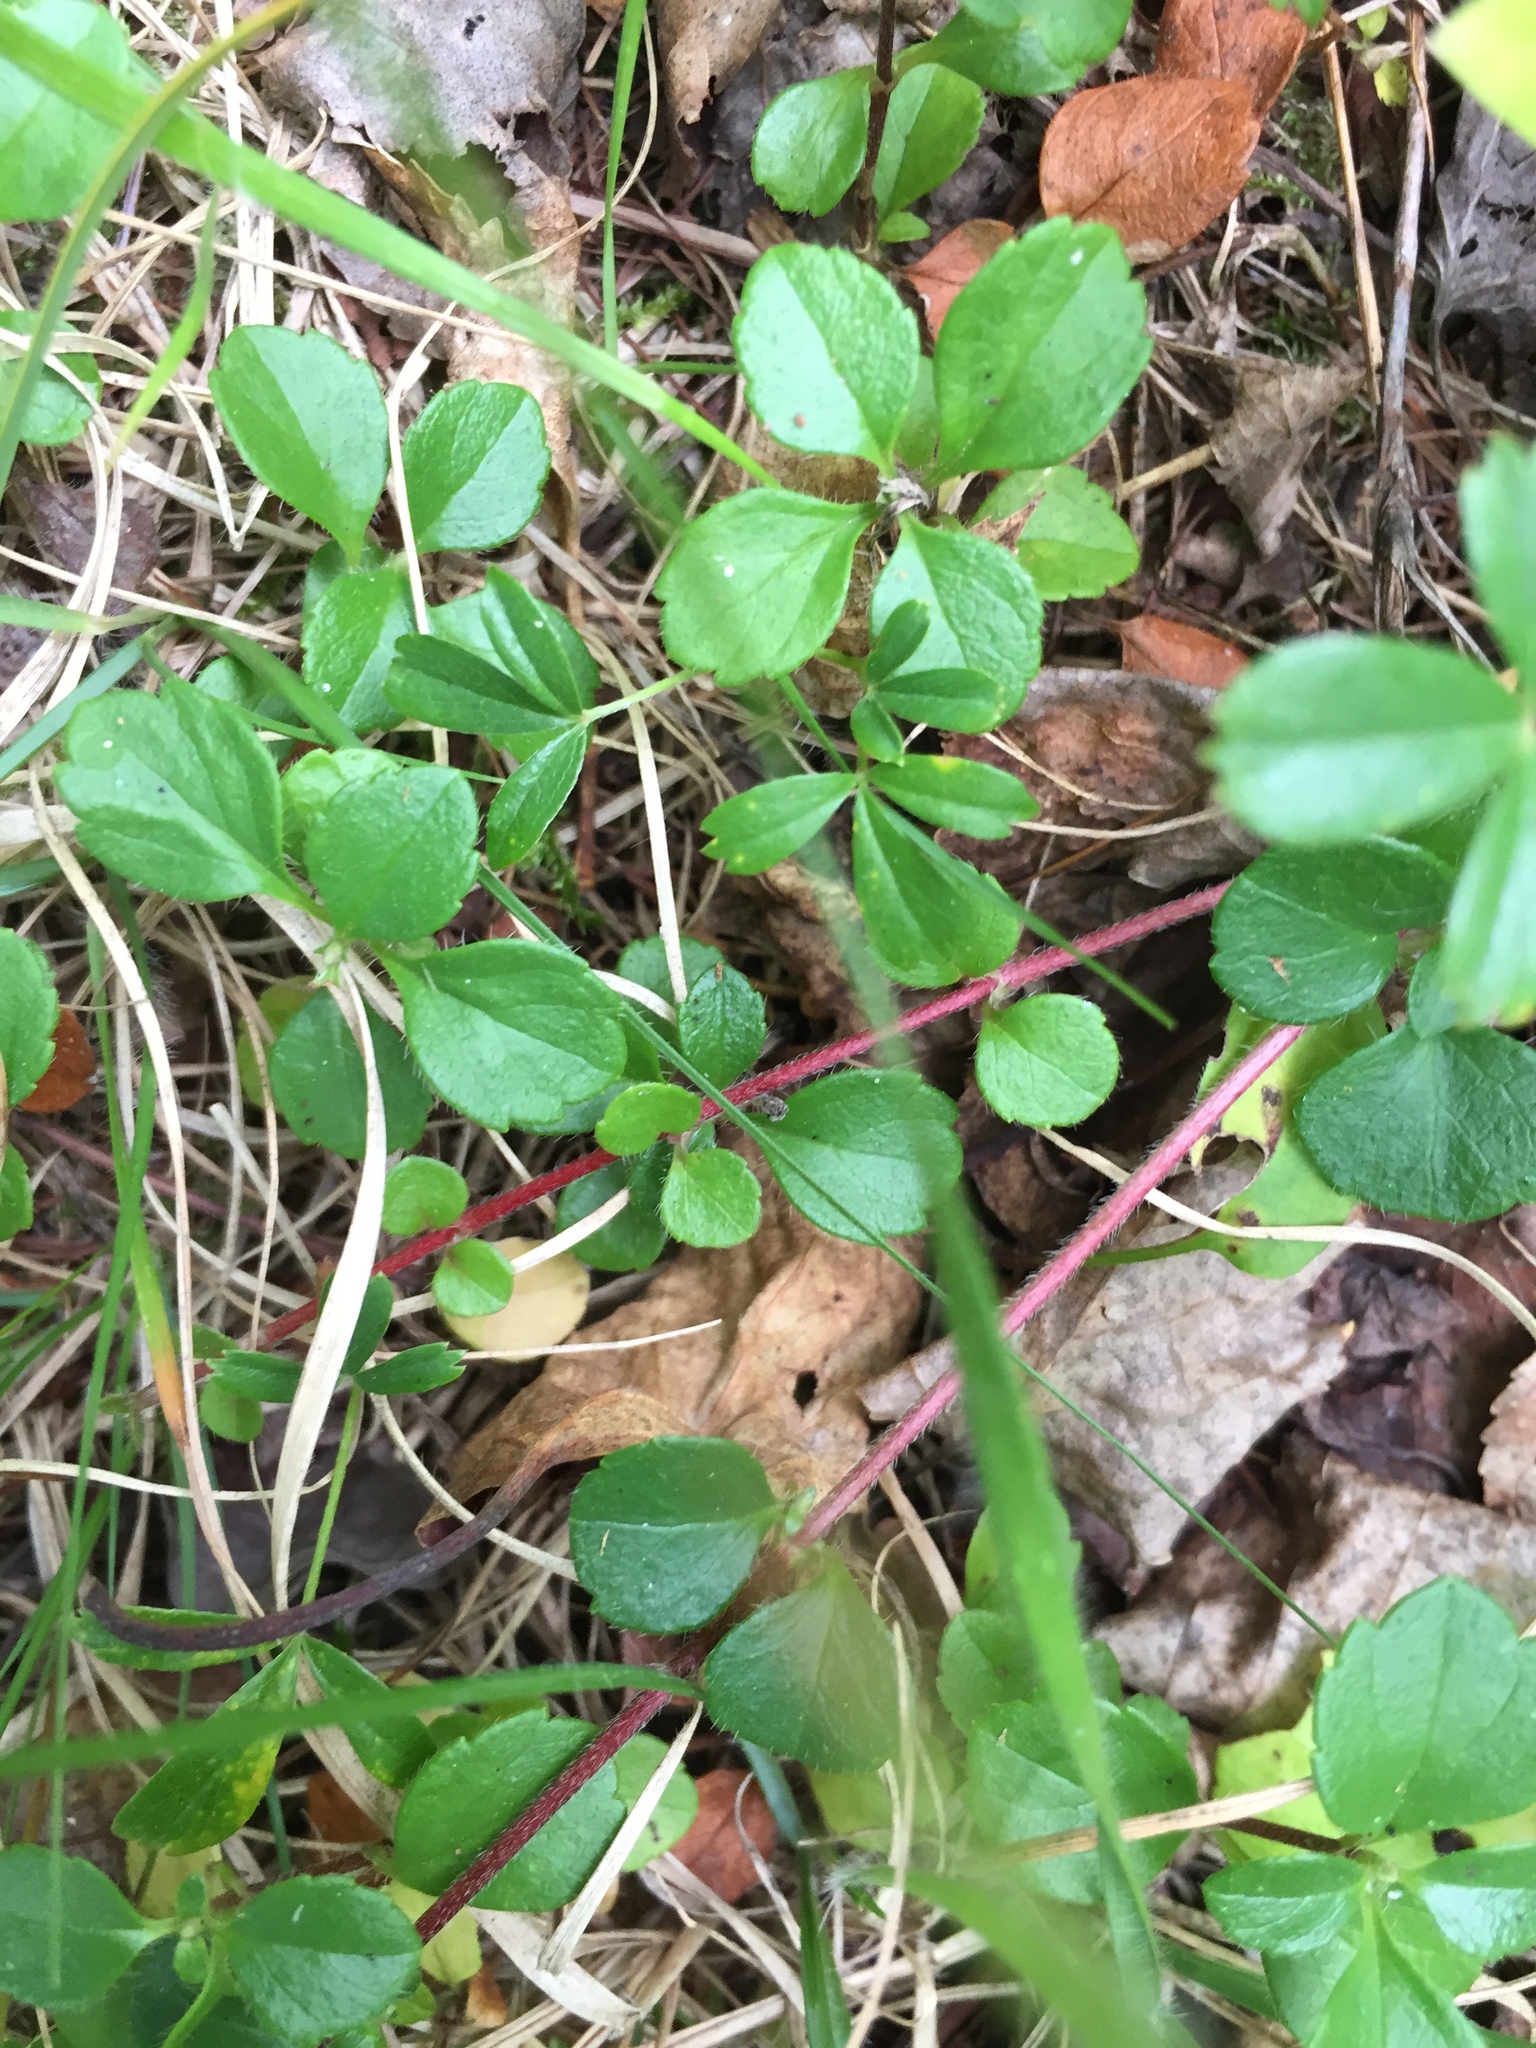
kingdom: Plantae
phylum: Tracheophyta
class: Magnoliopsida
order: Dipsacales
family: Caprifoliaceae
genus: Linnaea
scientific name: Linnaea borealis
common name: Twinflower
